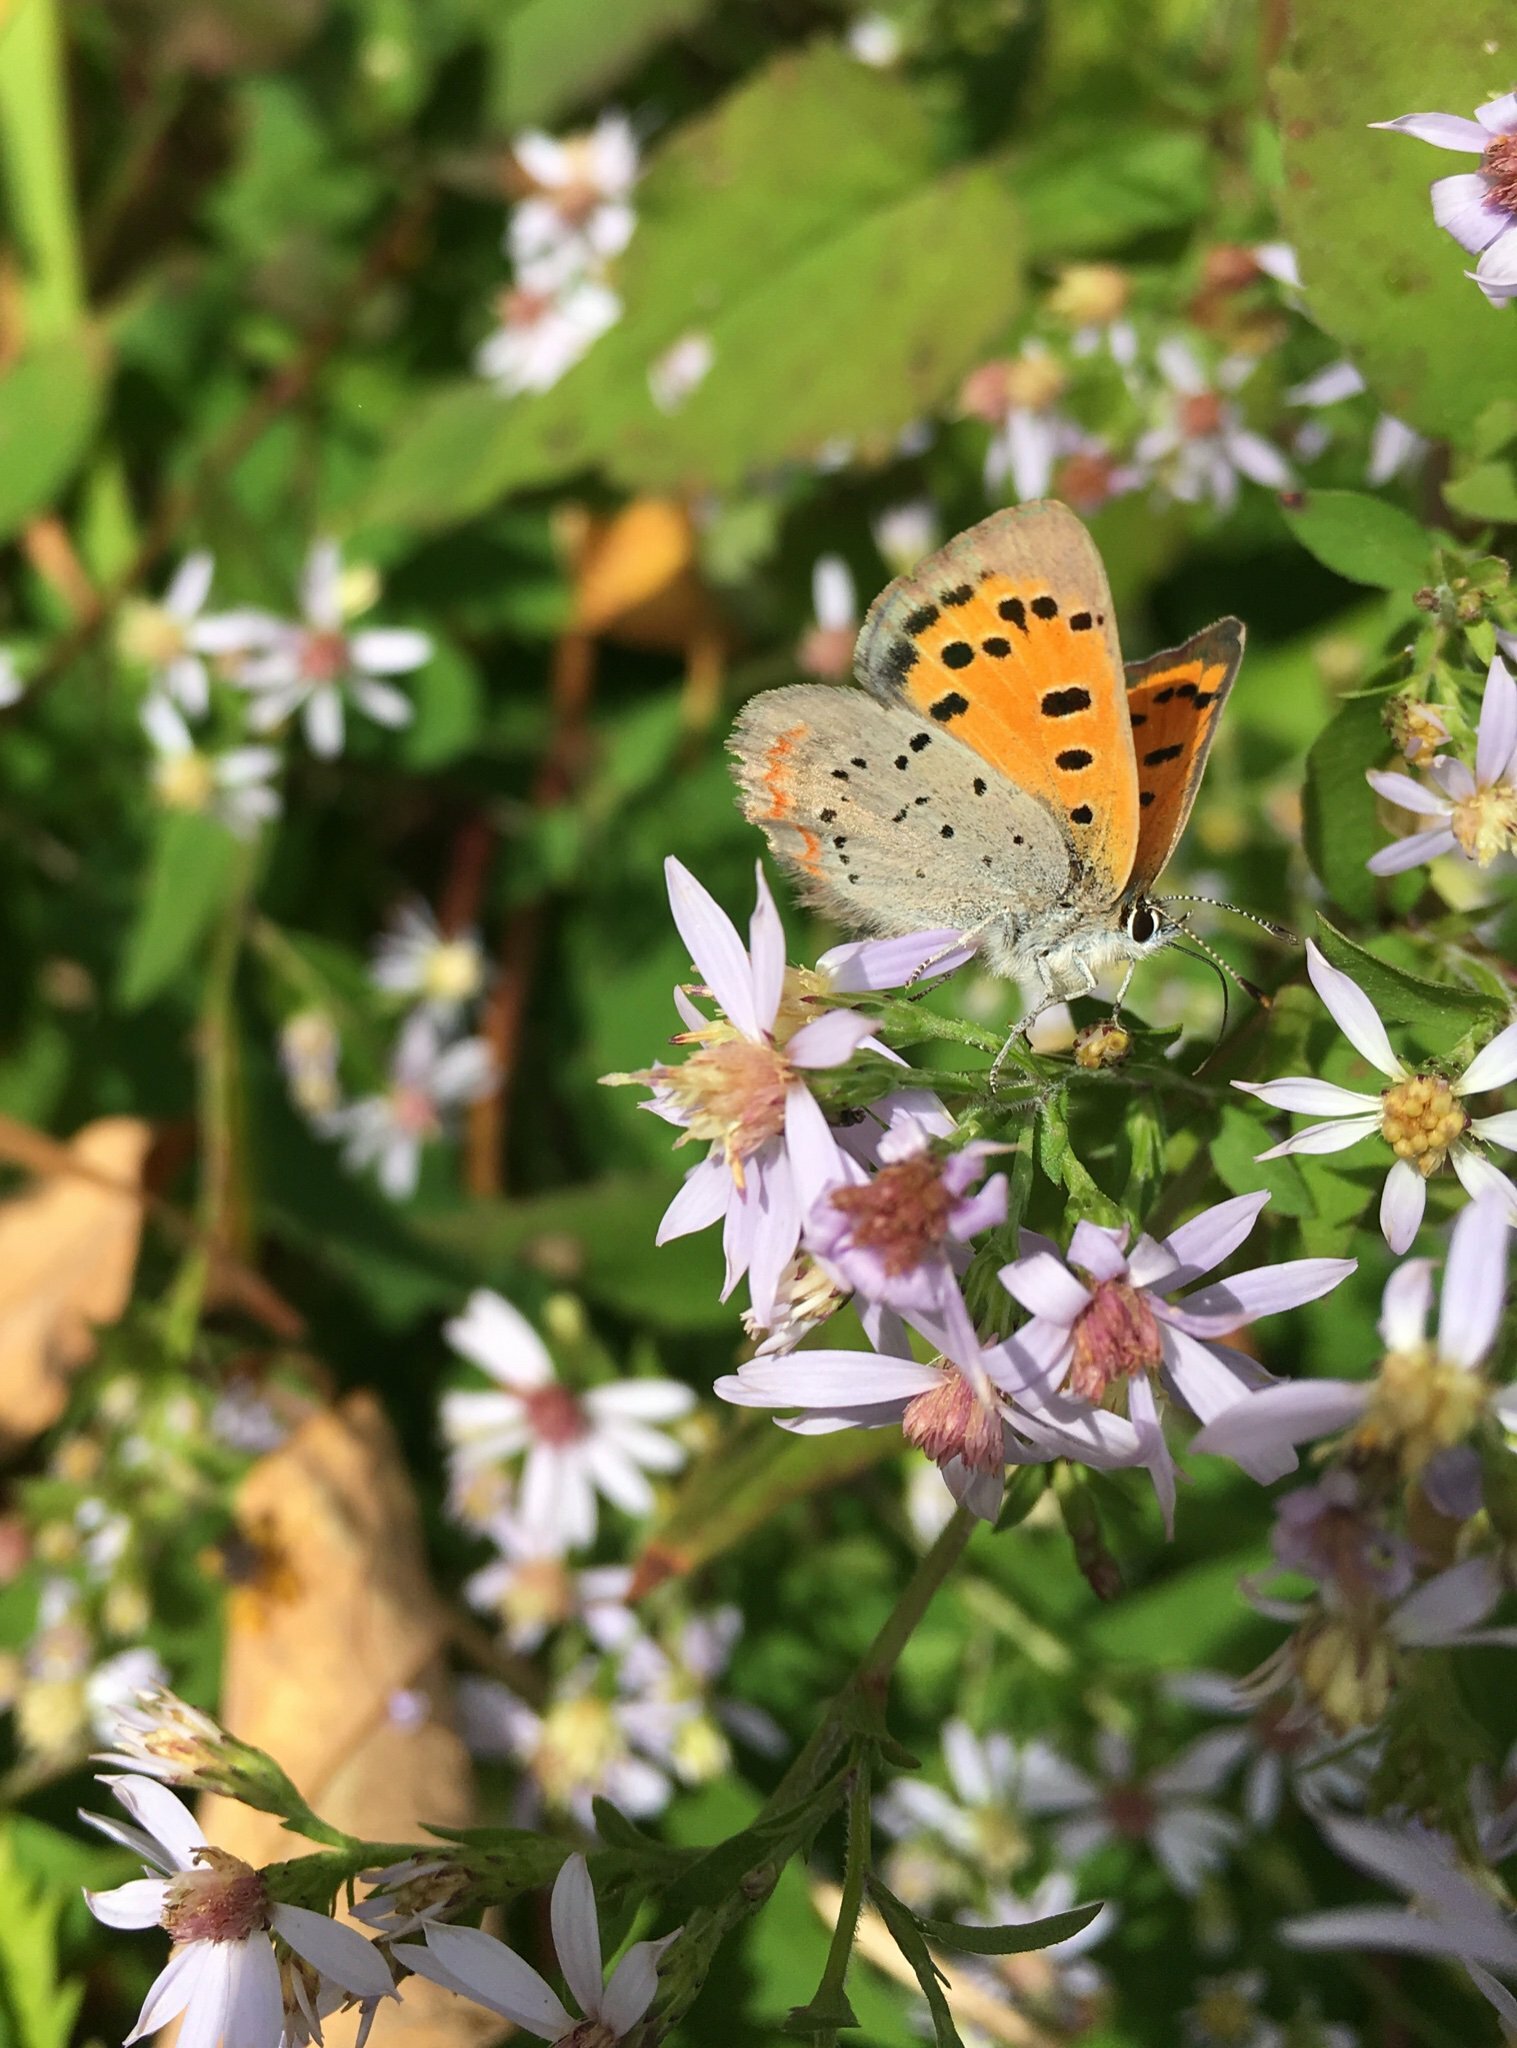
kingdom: Animalia
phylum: Arthropoda
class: Insecta
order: Lepidoptera
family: Lycaenidae
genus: Lycaena
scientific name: Lycaena hypophlaeas
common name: American copper
